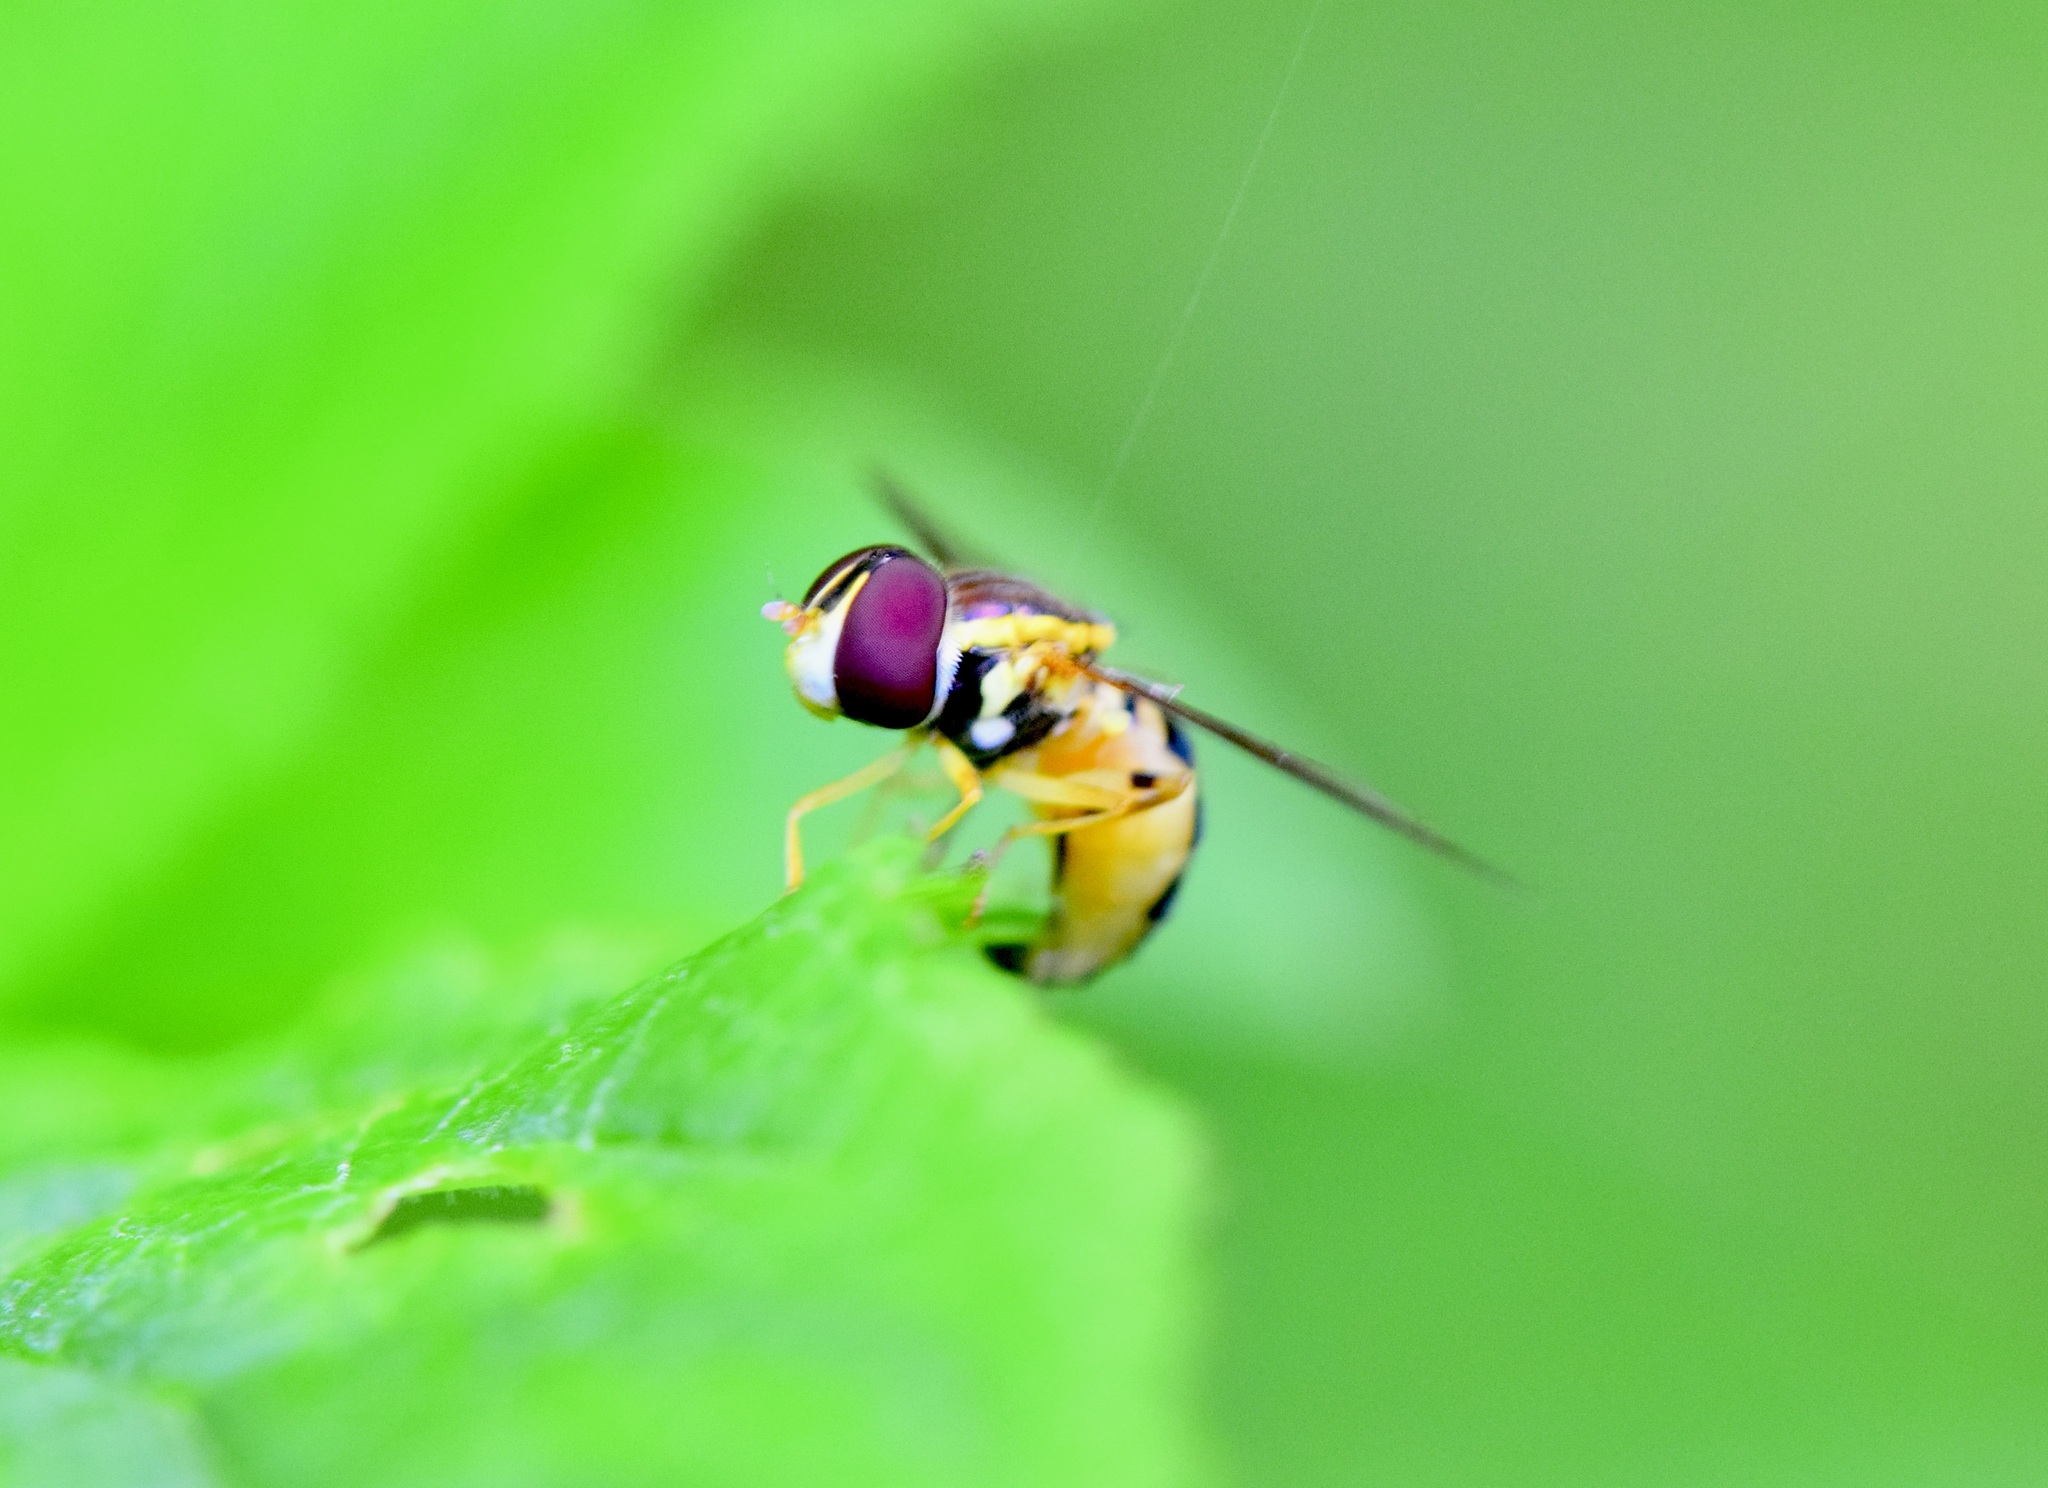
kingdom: Animalia
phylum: Arthropoda
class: Insecta
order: Diptera
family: Syrphidae
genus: Toxomerus
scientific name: Toxomerus geminatus
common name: Eastern calligrapher
